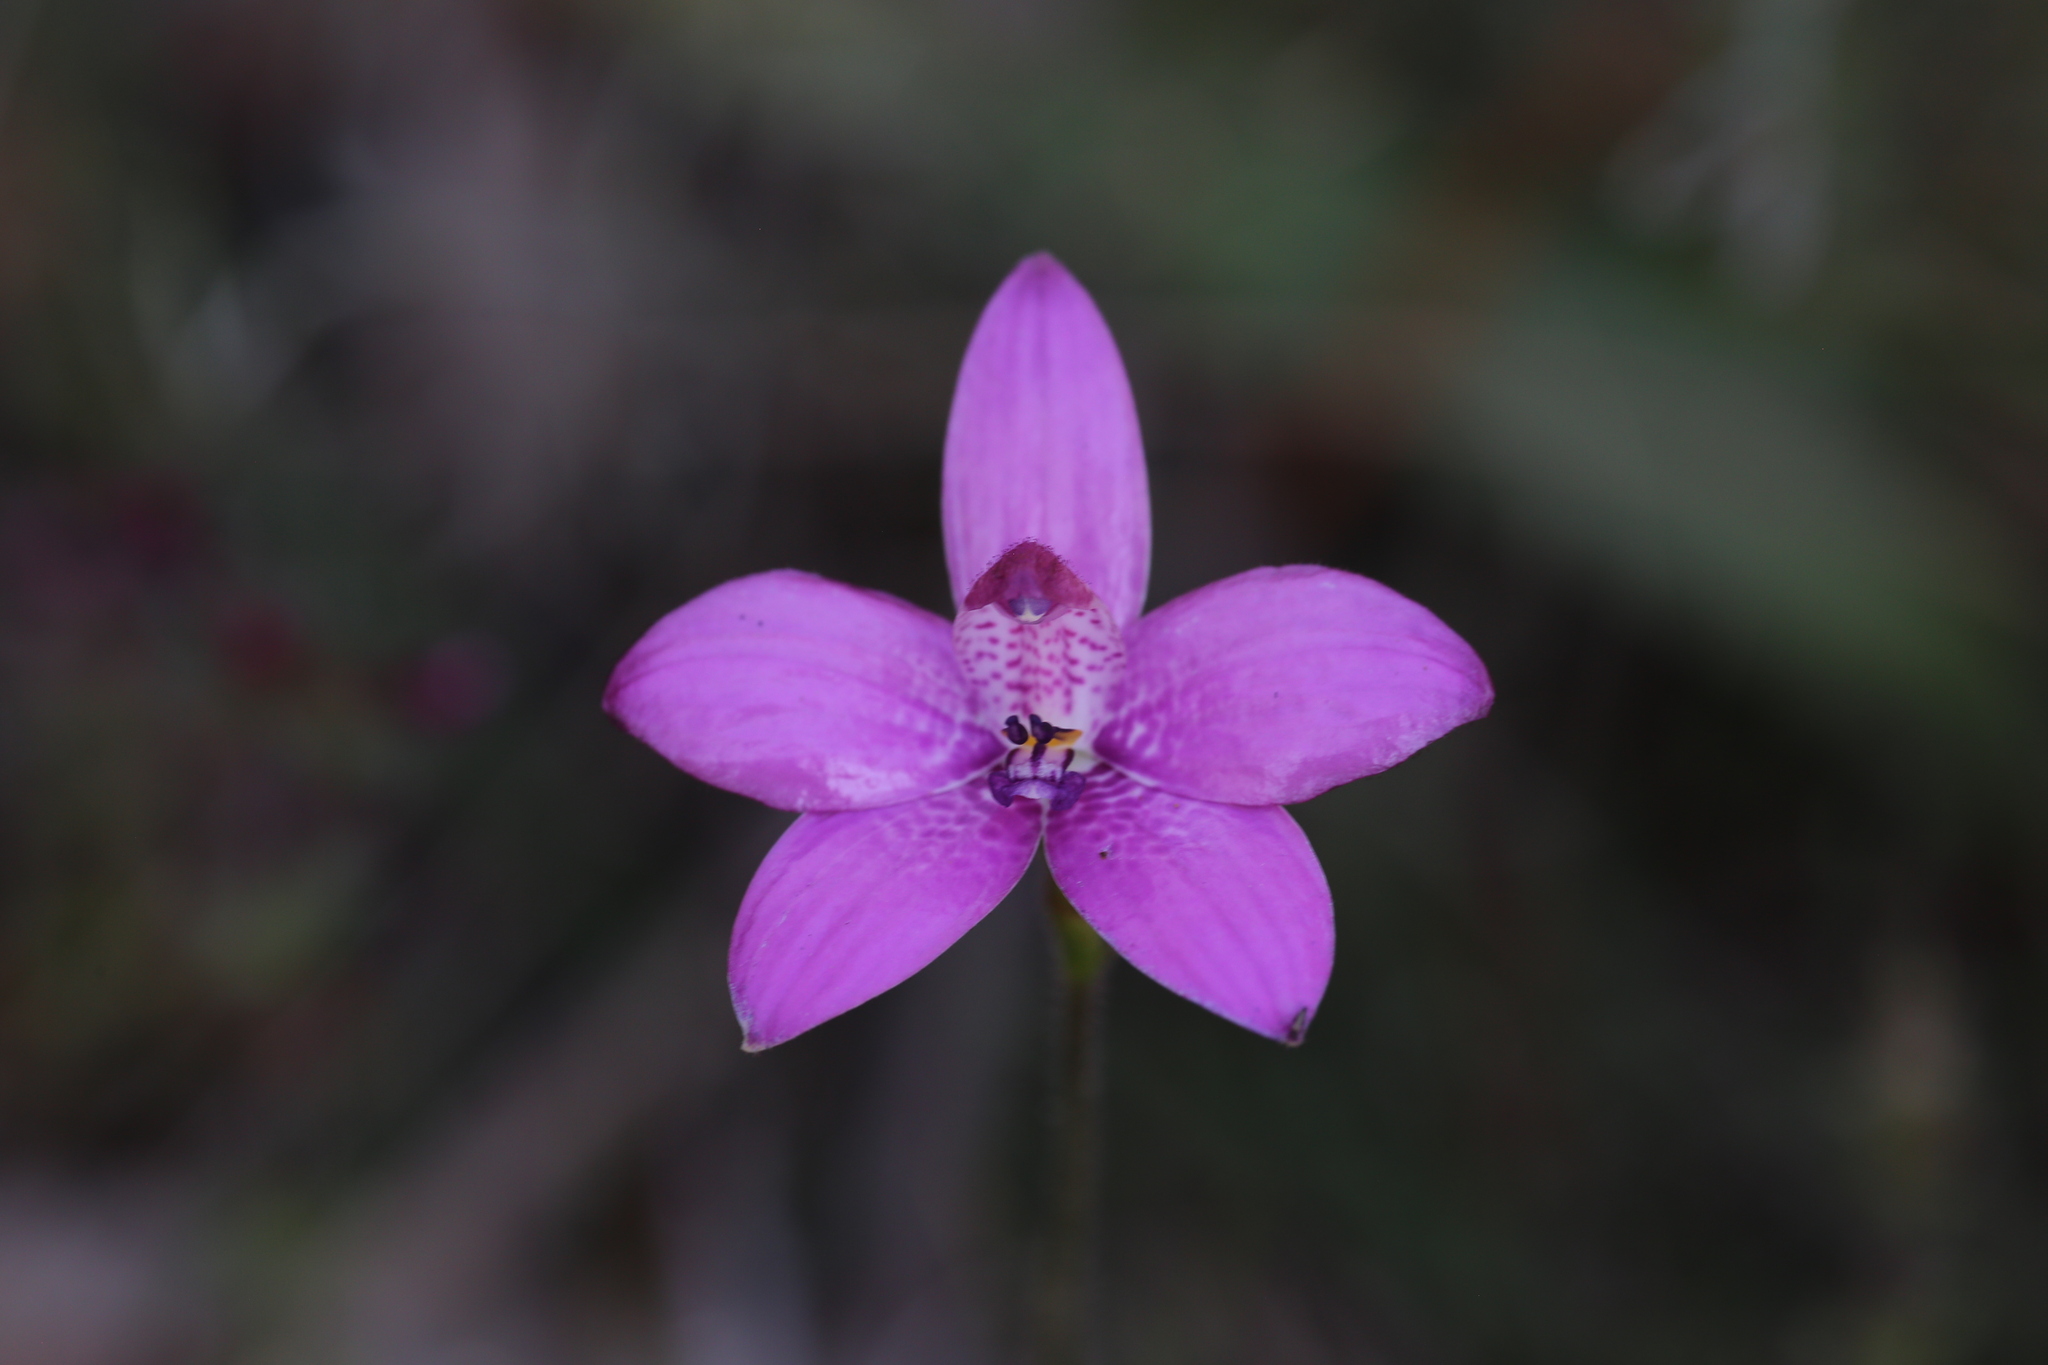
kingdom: Plantae
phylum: Tracheophyta
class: Liliopsida
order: Asparagales
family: Orchidaceae
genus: Caladenia
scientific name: Caladenia emarginata
